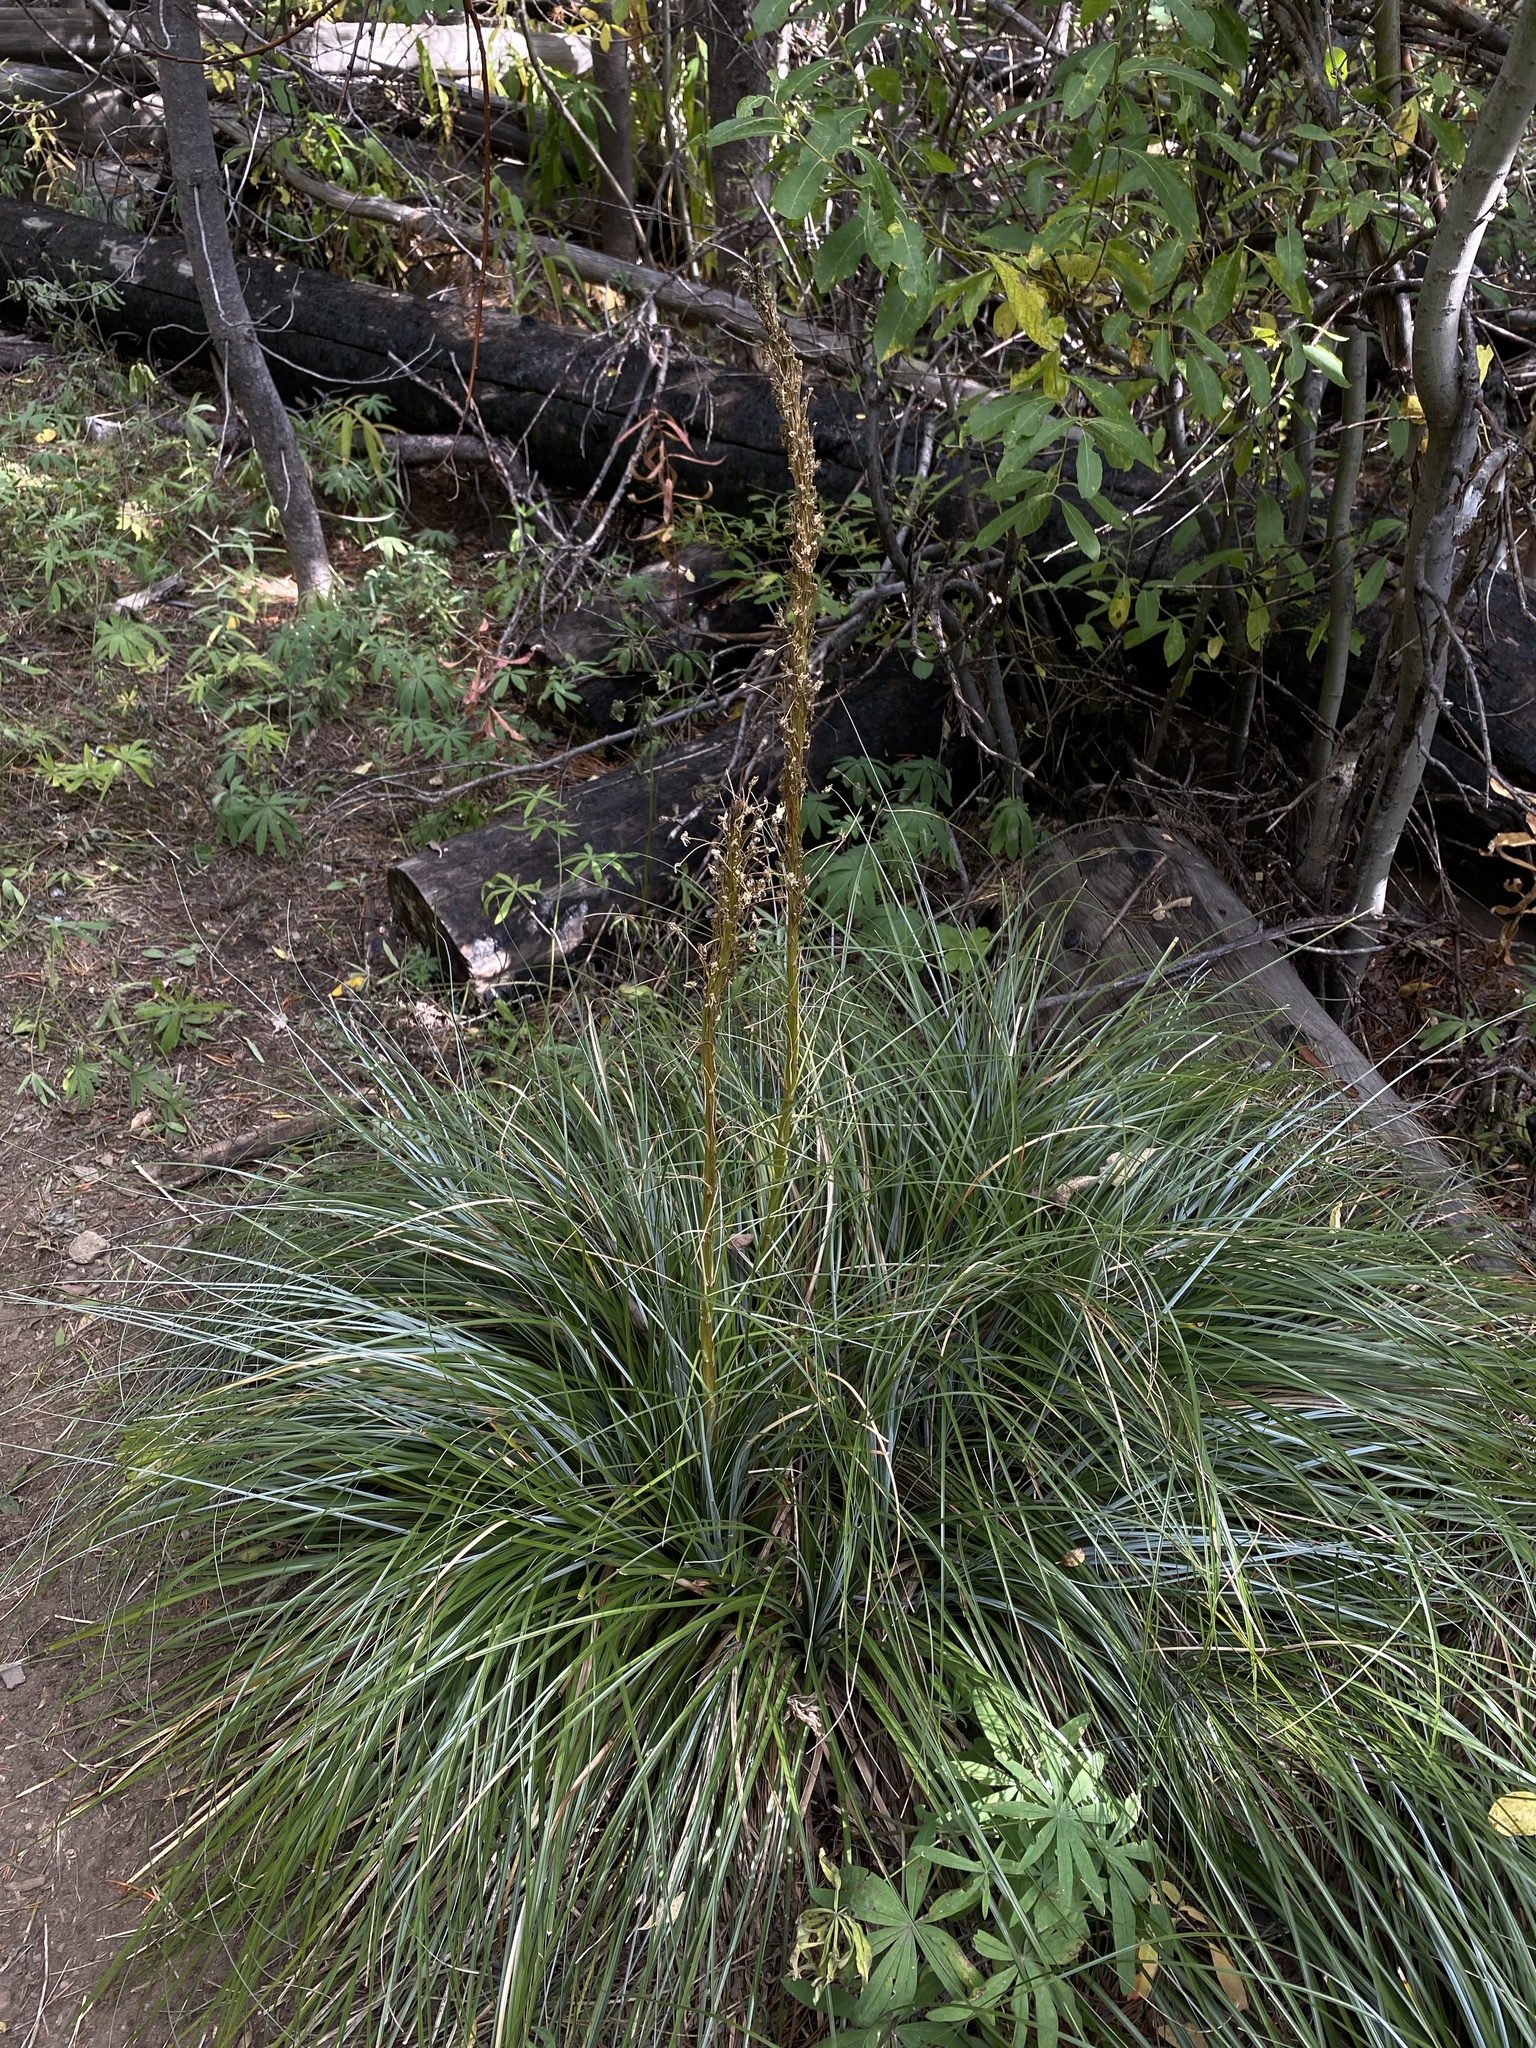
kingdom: Plantae
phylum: Tracheophyta
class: Liliopsida
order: Liliales
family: Melanthiaceae
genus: Xerophyllum
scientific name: Xerophyllum tenax
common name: Bear-grass
